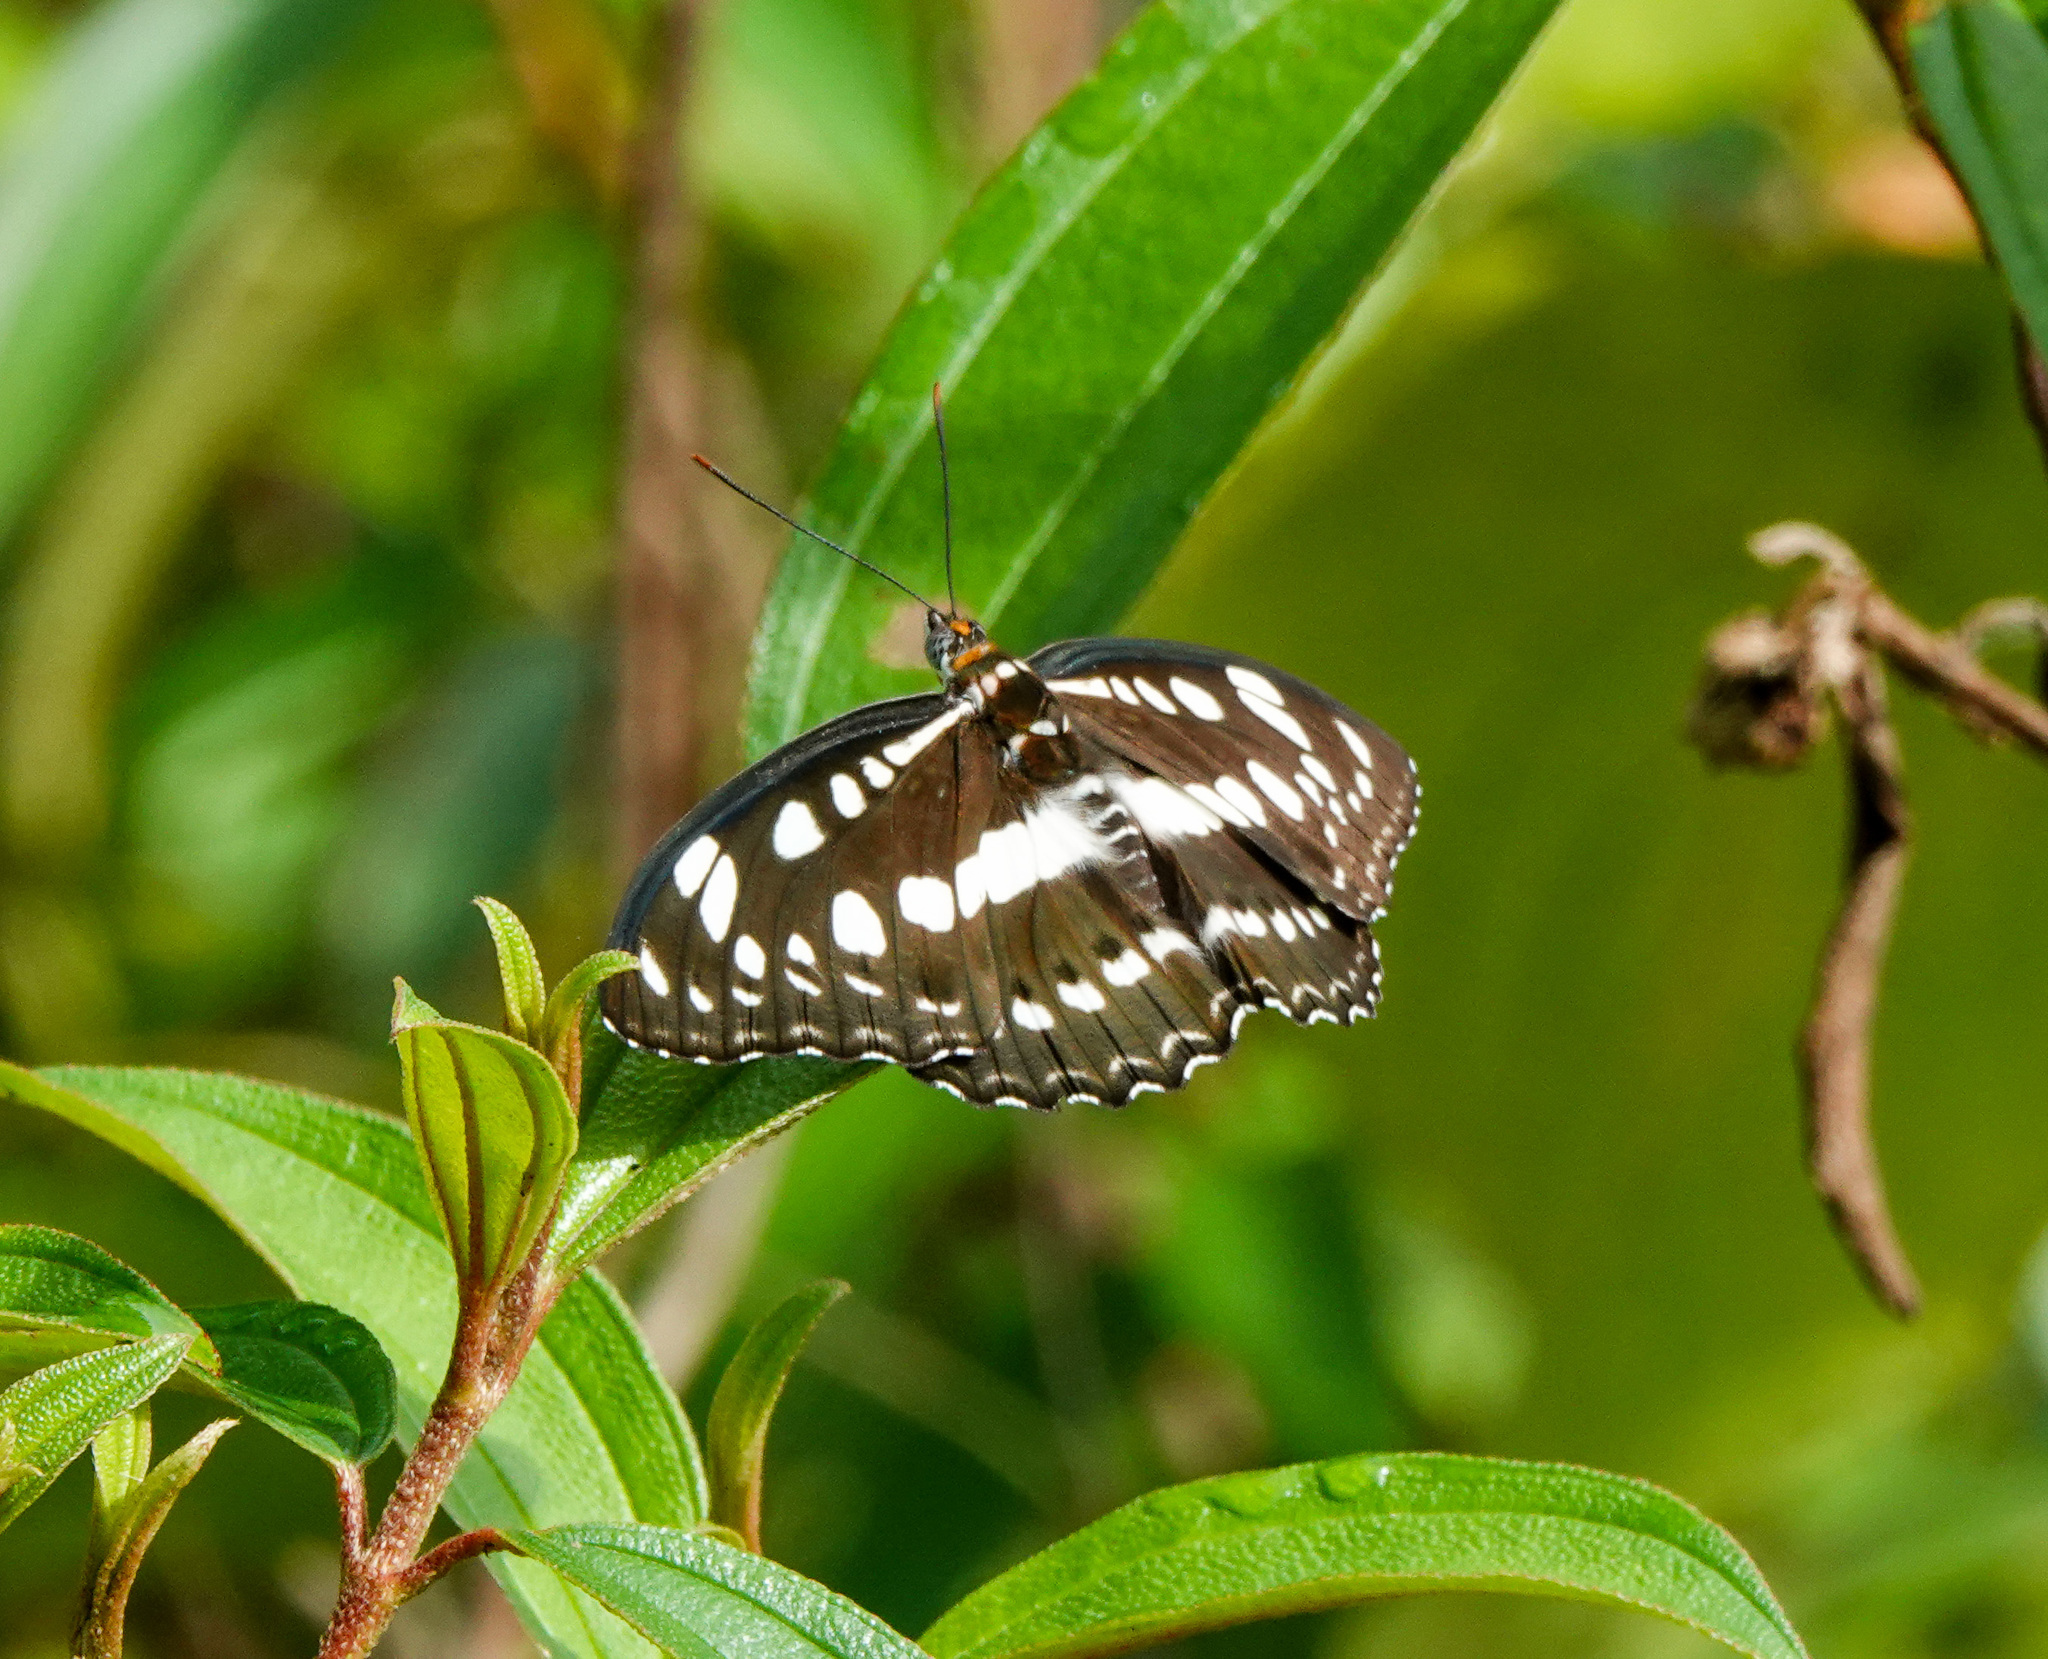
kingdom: Animalia
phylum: Arthropoda
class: Insecta
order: Lepidoptera
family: Nymphalidae
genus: Parathyma
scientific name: Parathyma perius
